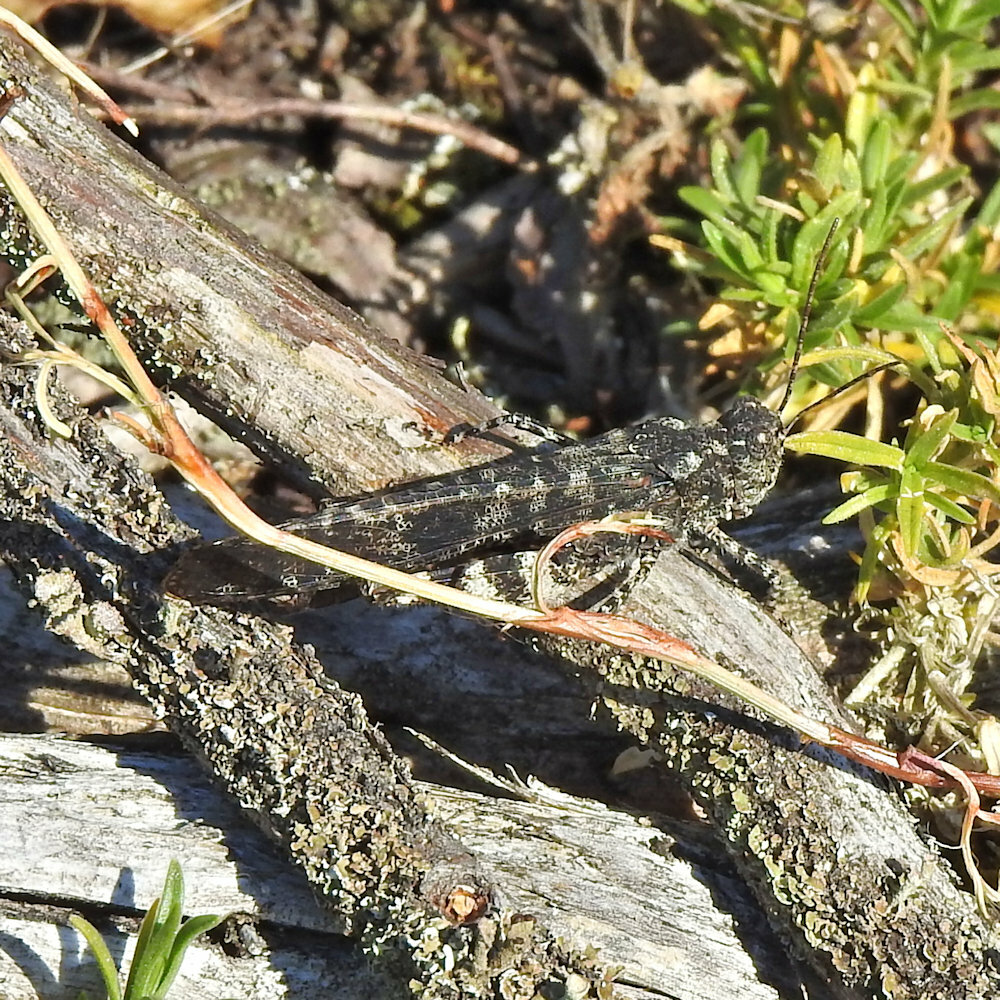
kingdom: Animalia
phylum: Arthropoda
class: Insecta
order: Orthoptera
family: Acrididae
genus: Trimerotropis
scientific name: Trimerotropis verruculata
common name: Crackling forest grasshopper
